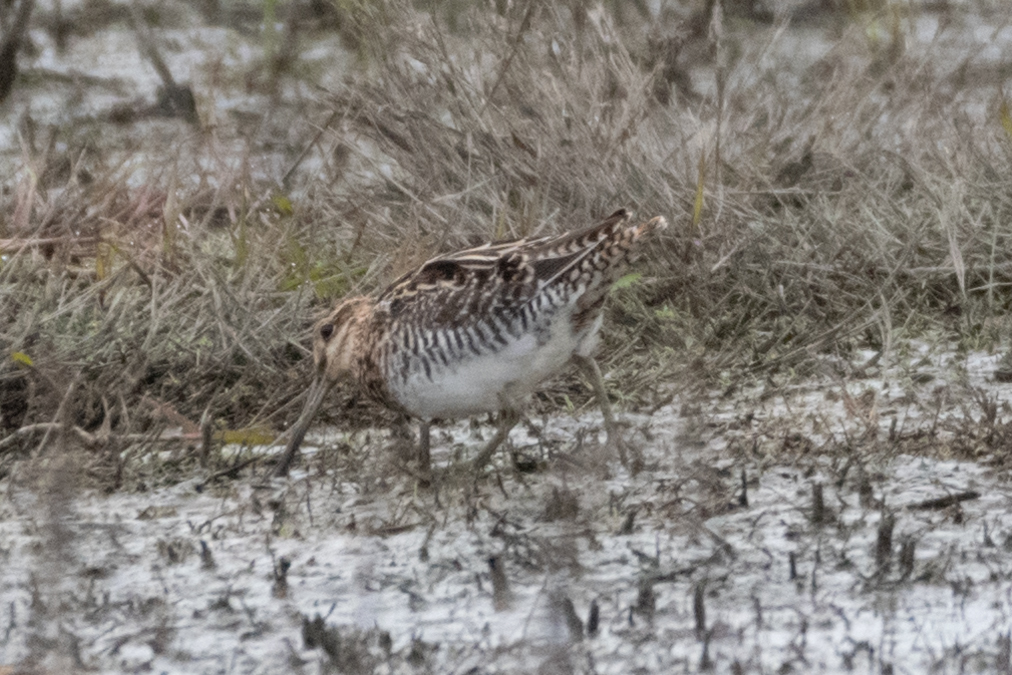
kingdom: Animalia
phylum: Chordata
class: Aves
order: Charadriiformes
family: Scolopacidae
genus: Gallinago
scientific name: Gallinago delicata
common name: Wilson's snipe
